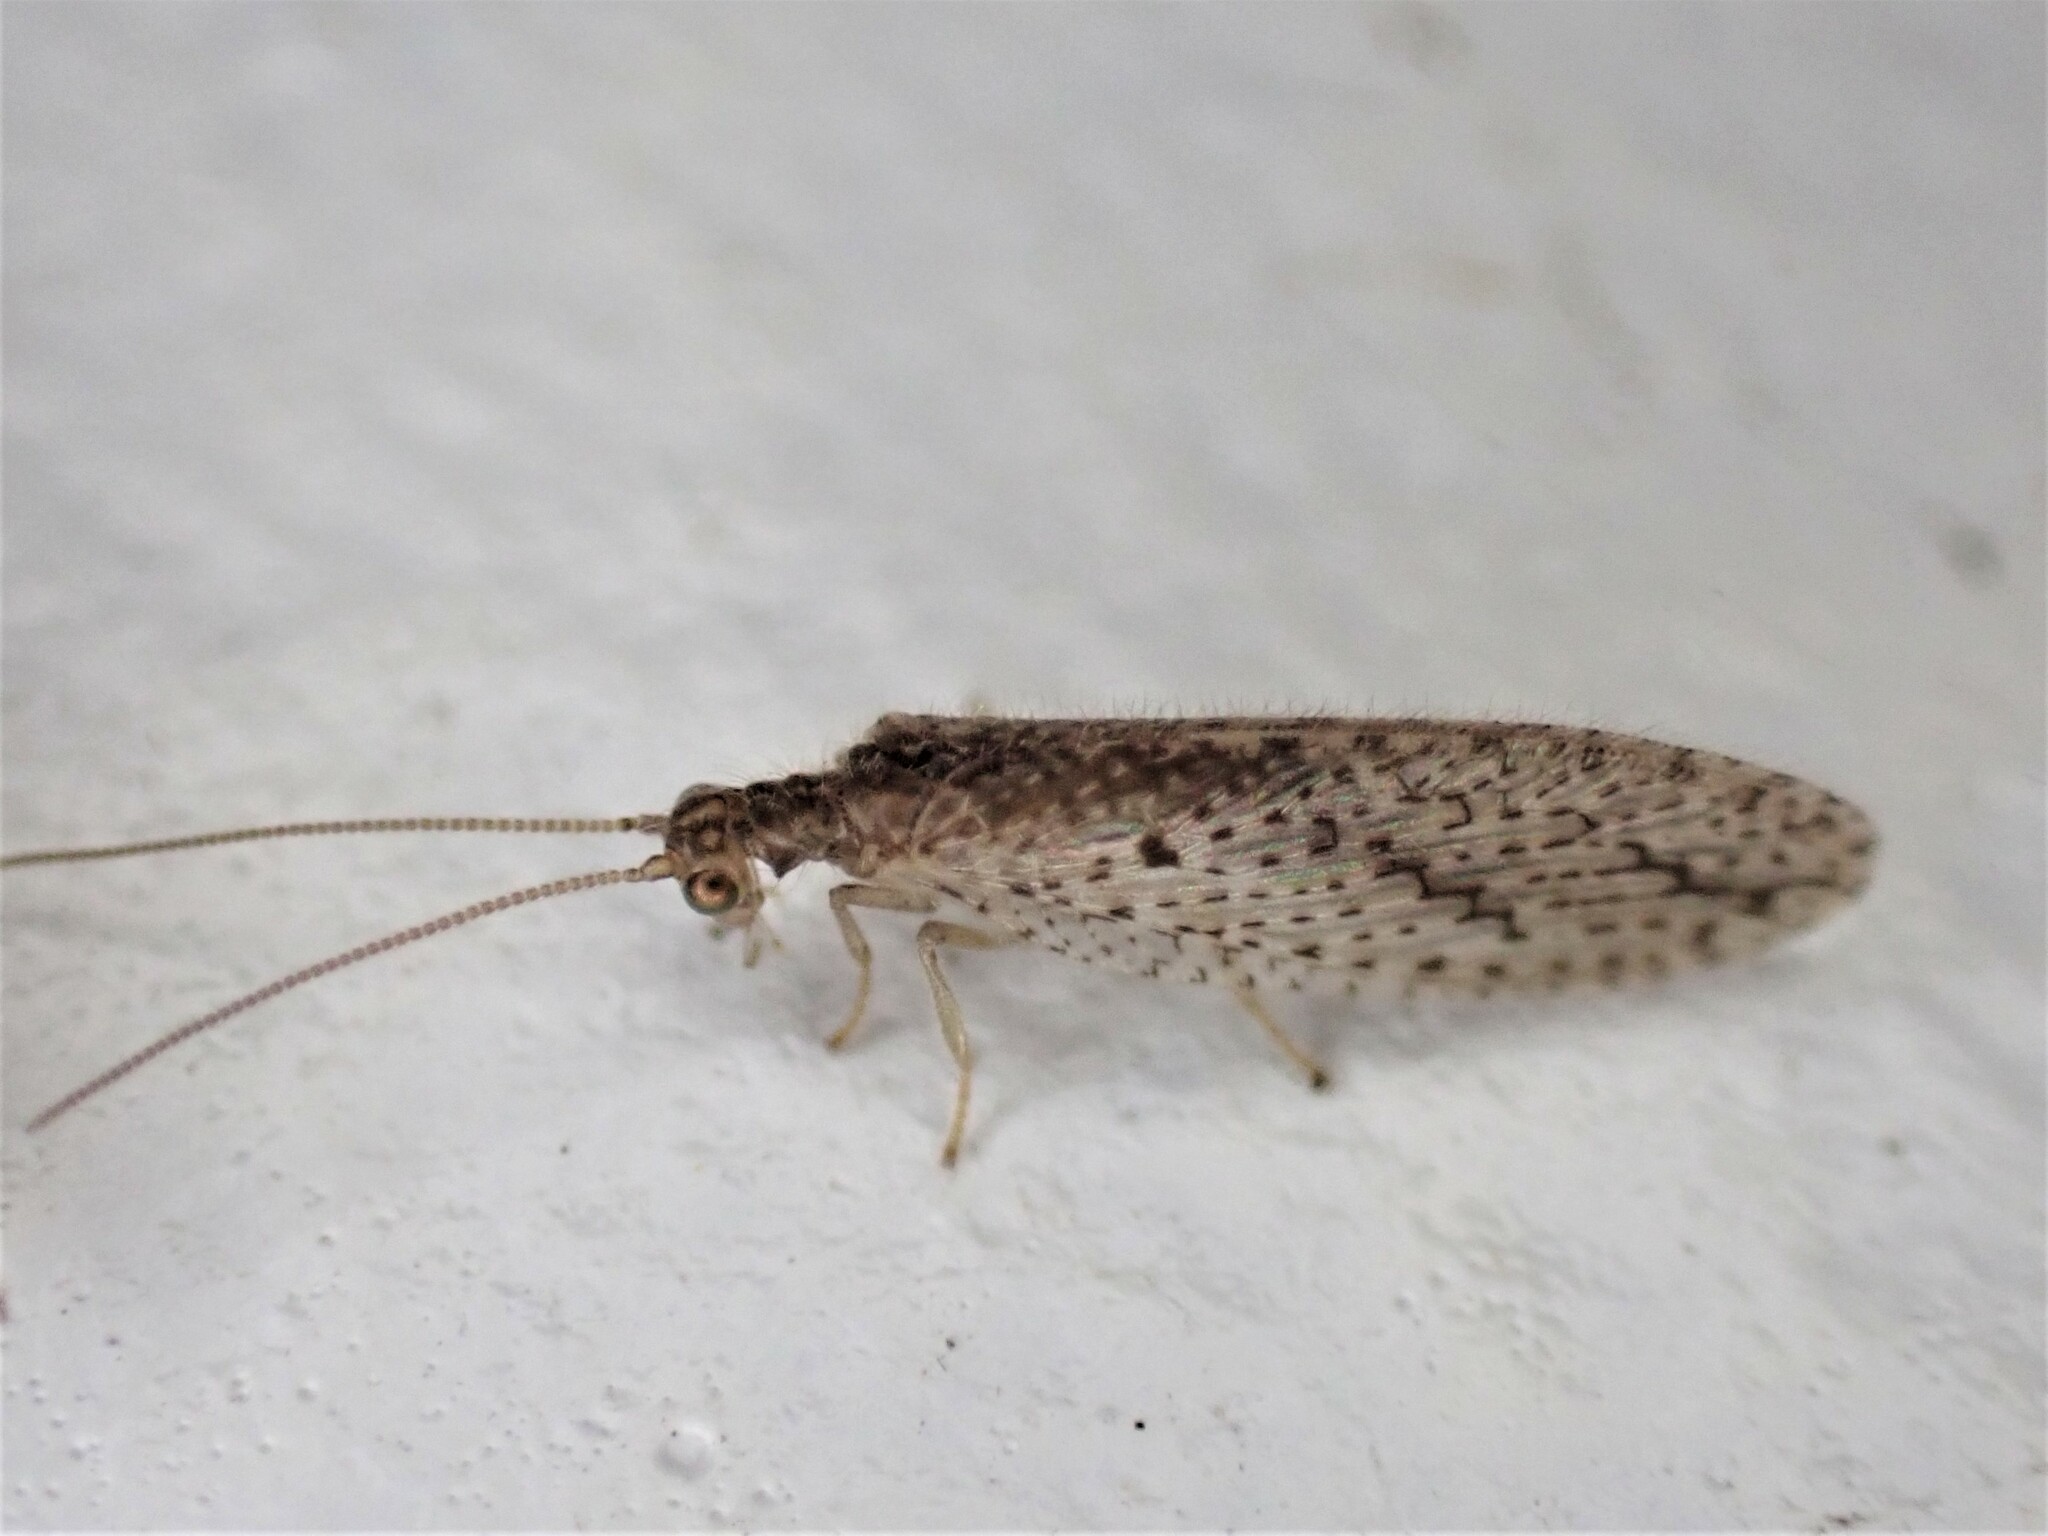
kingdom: Animalia
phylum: Arthropoda
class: Insecta
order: Neuroptera
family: Hemerobiidae
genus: Micromus
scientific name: Micromus tasmaniae
